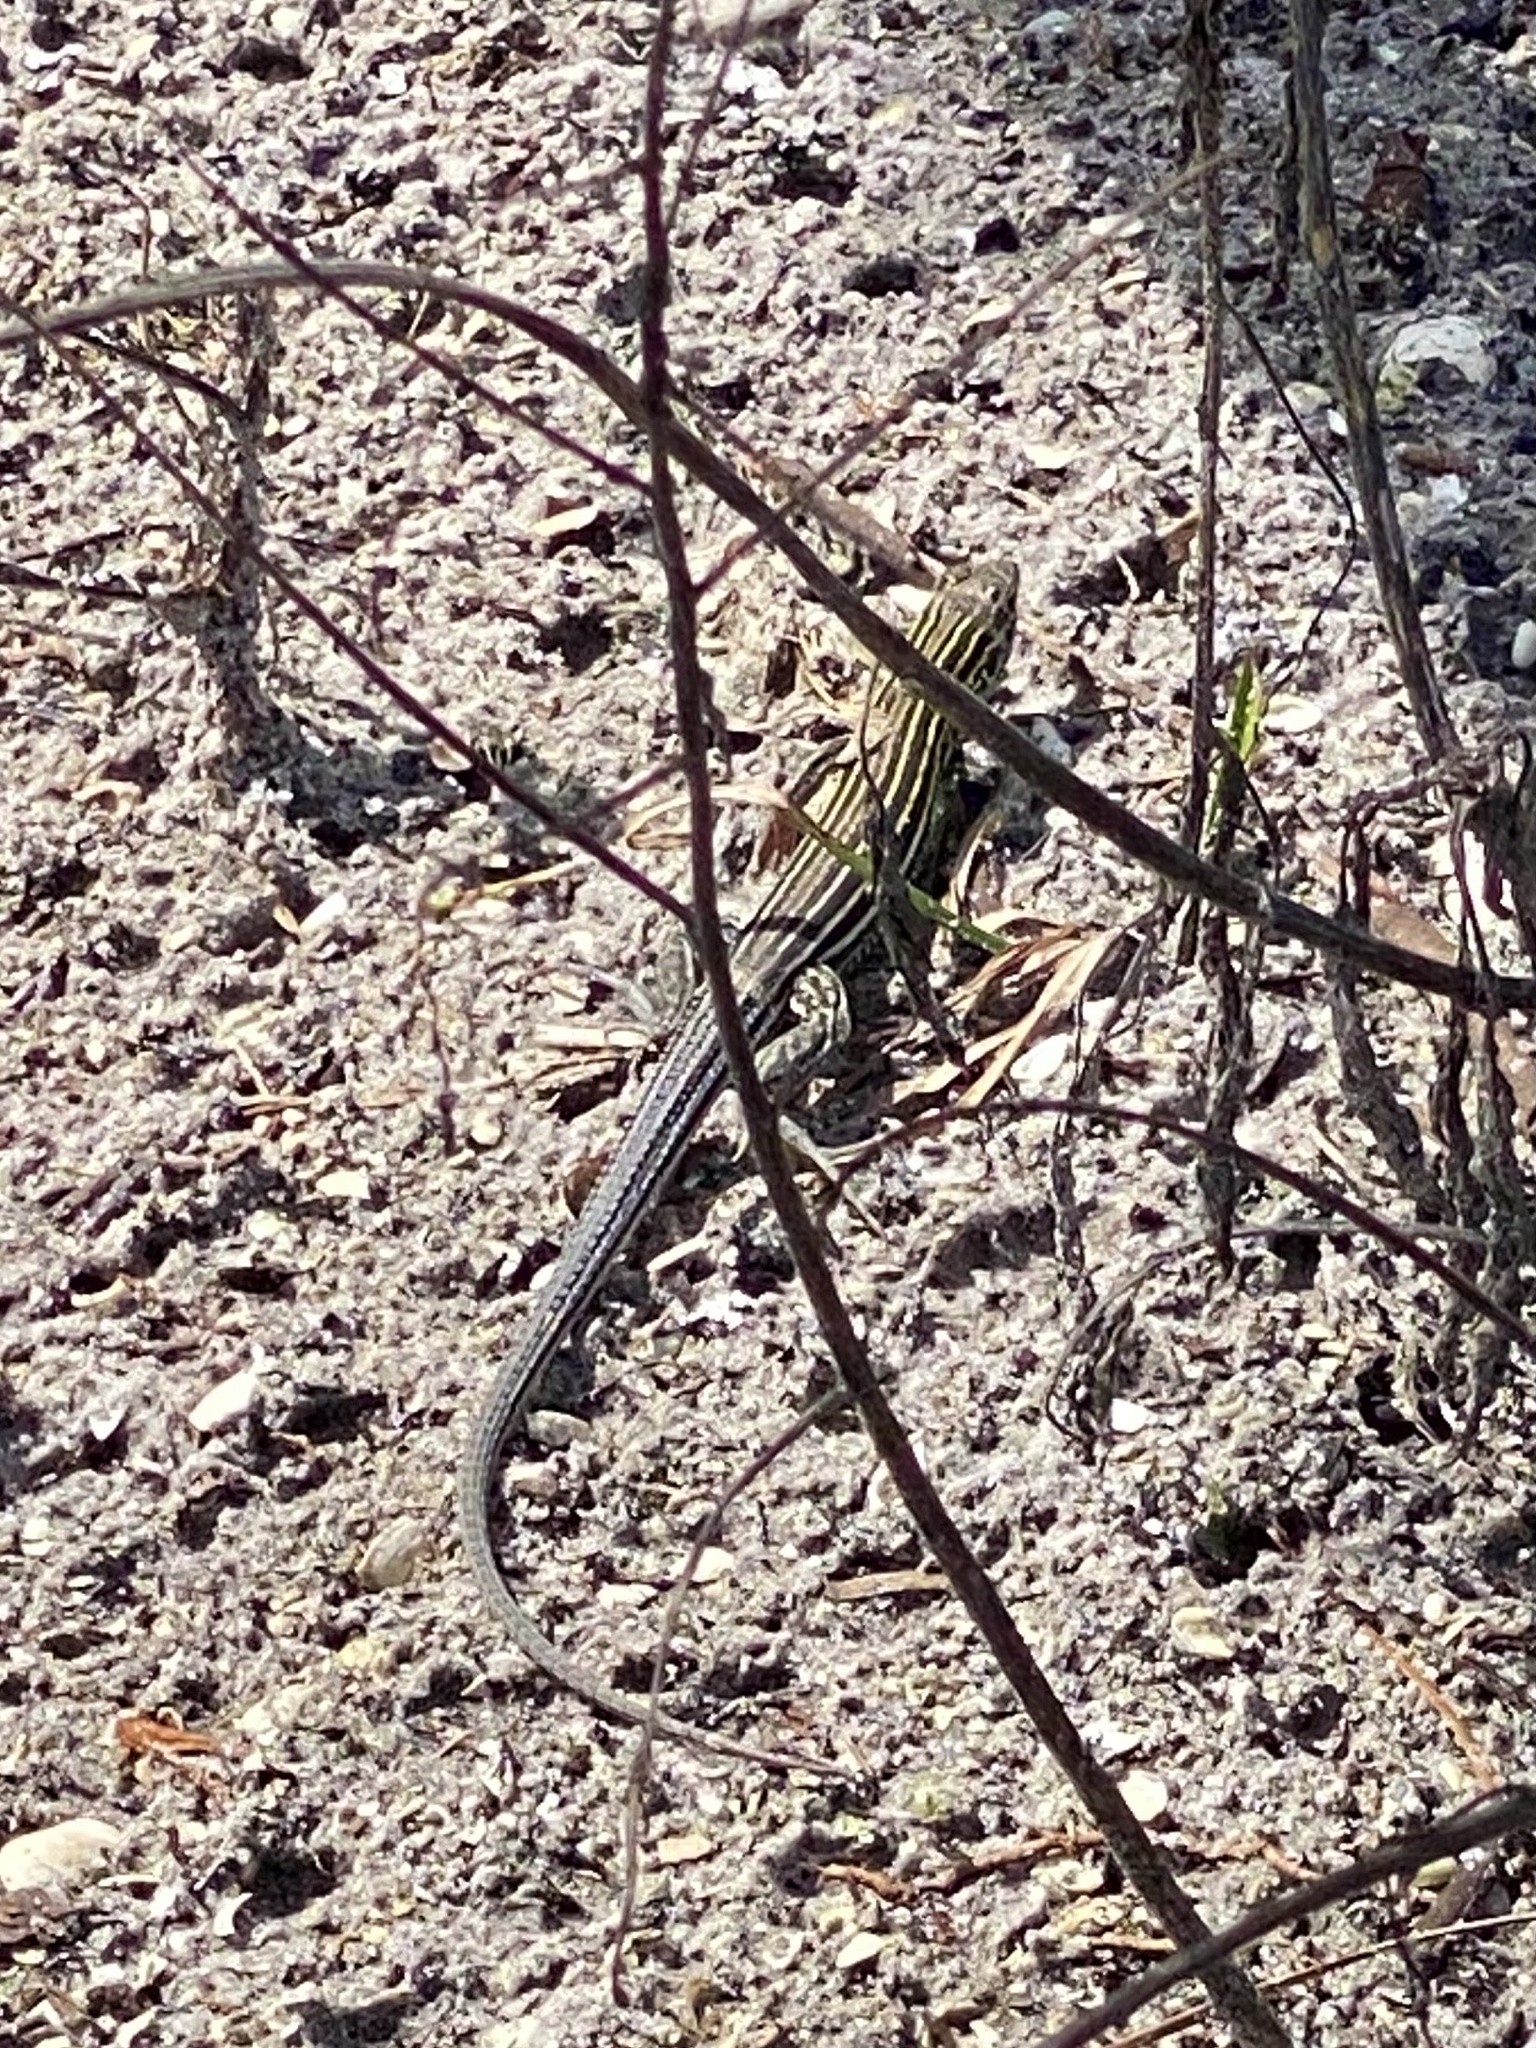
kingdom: Animalia
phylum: Chordata
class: Squamata
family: Teiidae
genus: Aspidoscelis
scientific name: Aspidoscelis sexlineatus
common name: Six-lined racerunner
